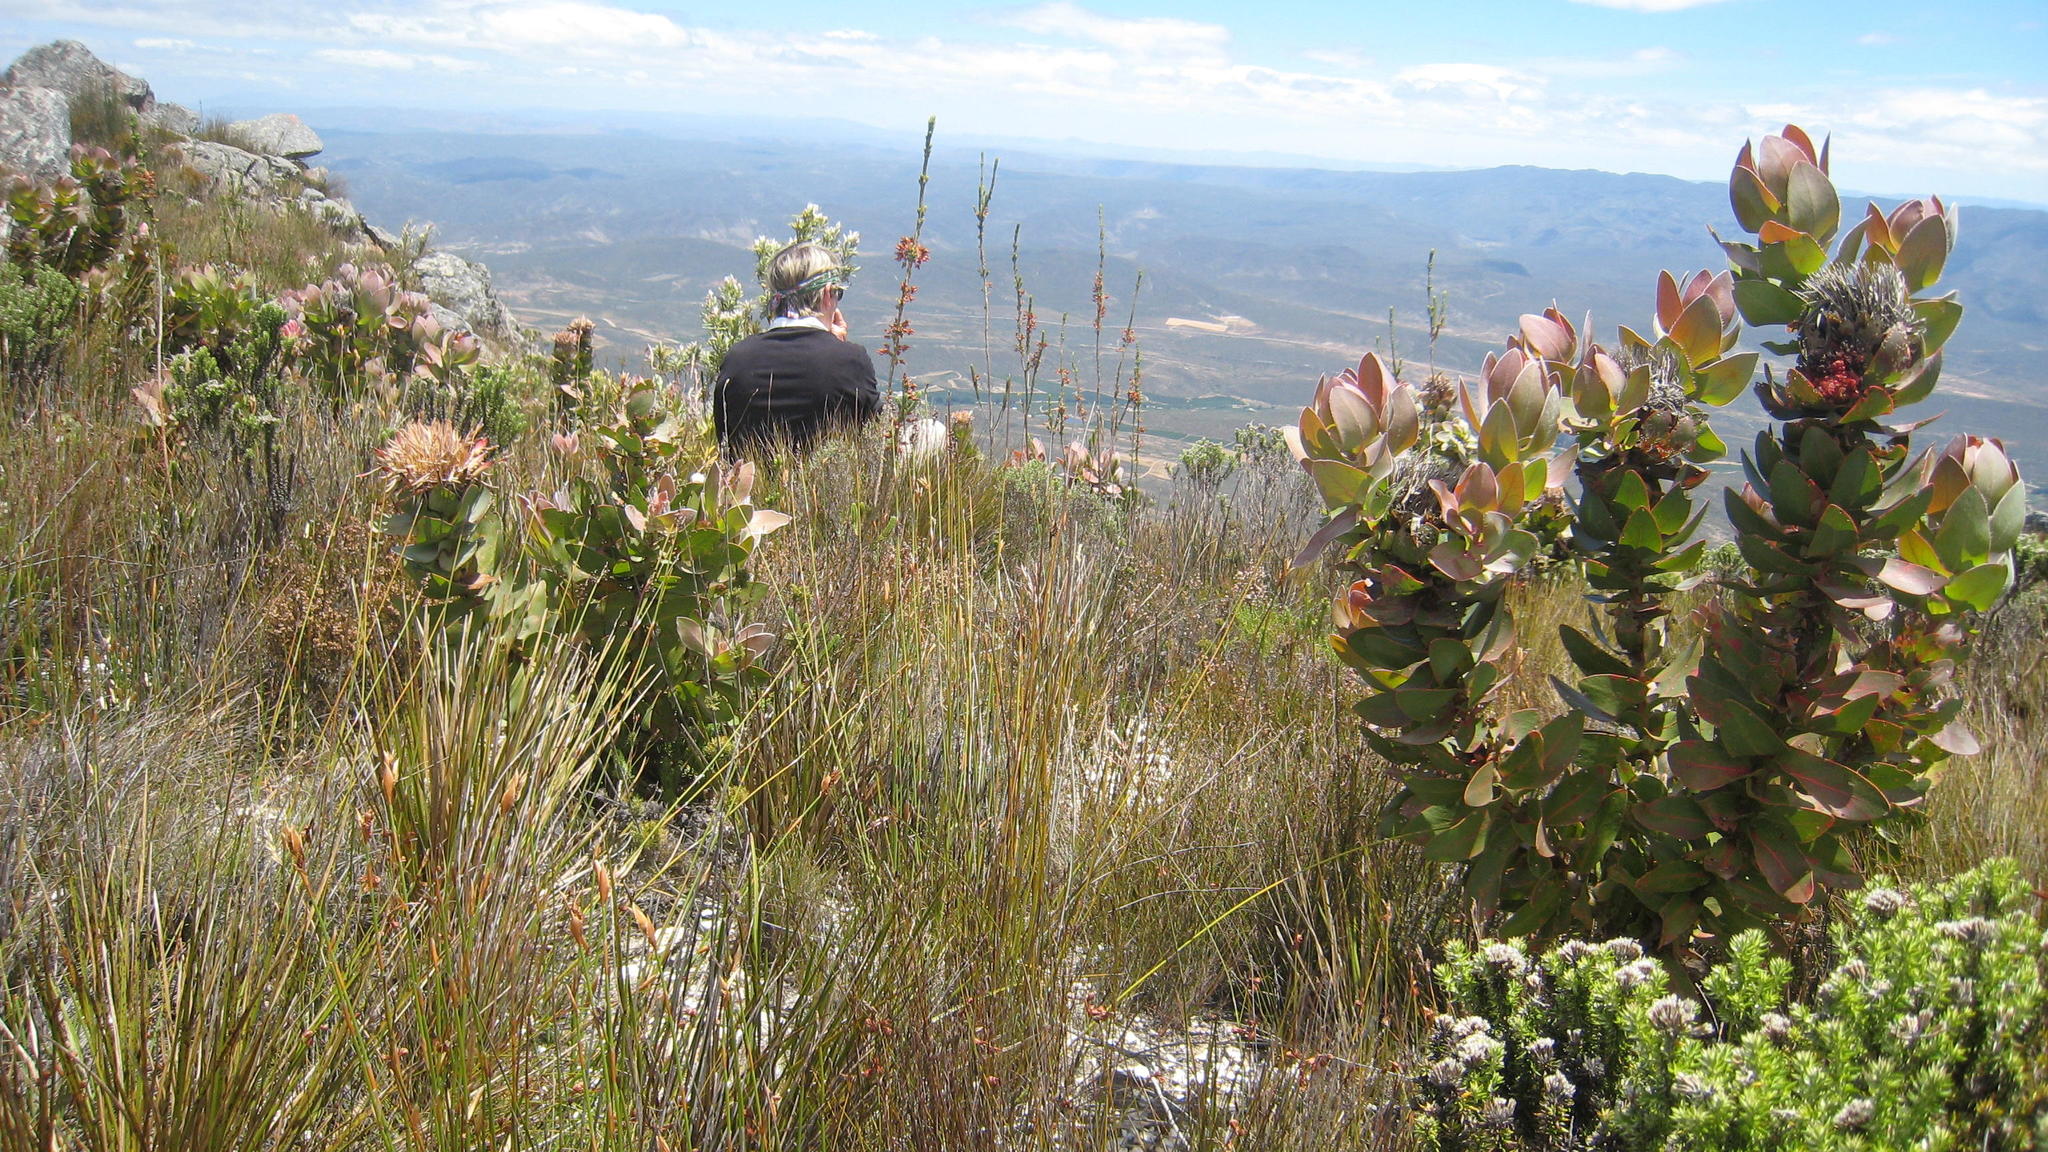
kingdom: Plantae
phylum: Tracheophyta
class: Magnoliopsida
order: Proteales
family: Proteaceae
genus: Protea
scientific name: Protea eximia
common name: Broad-leaved sugarbush
